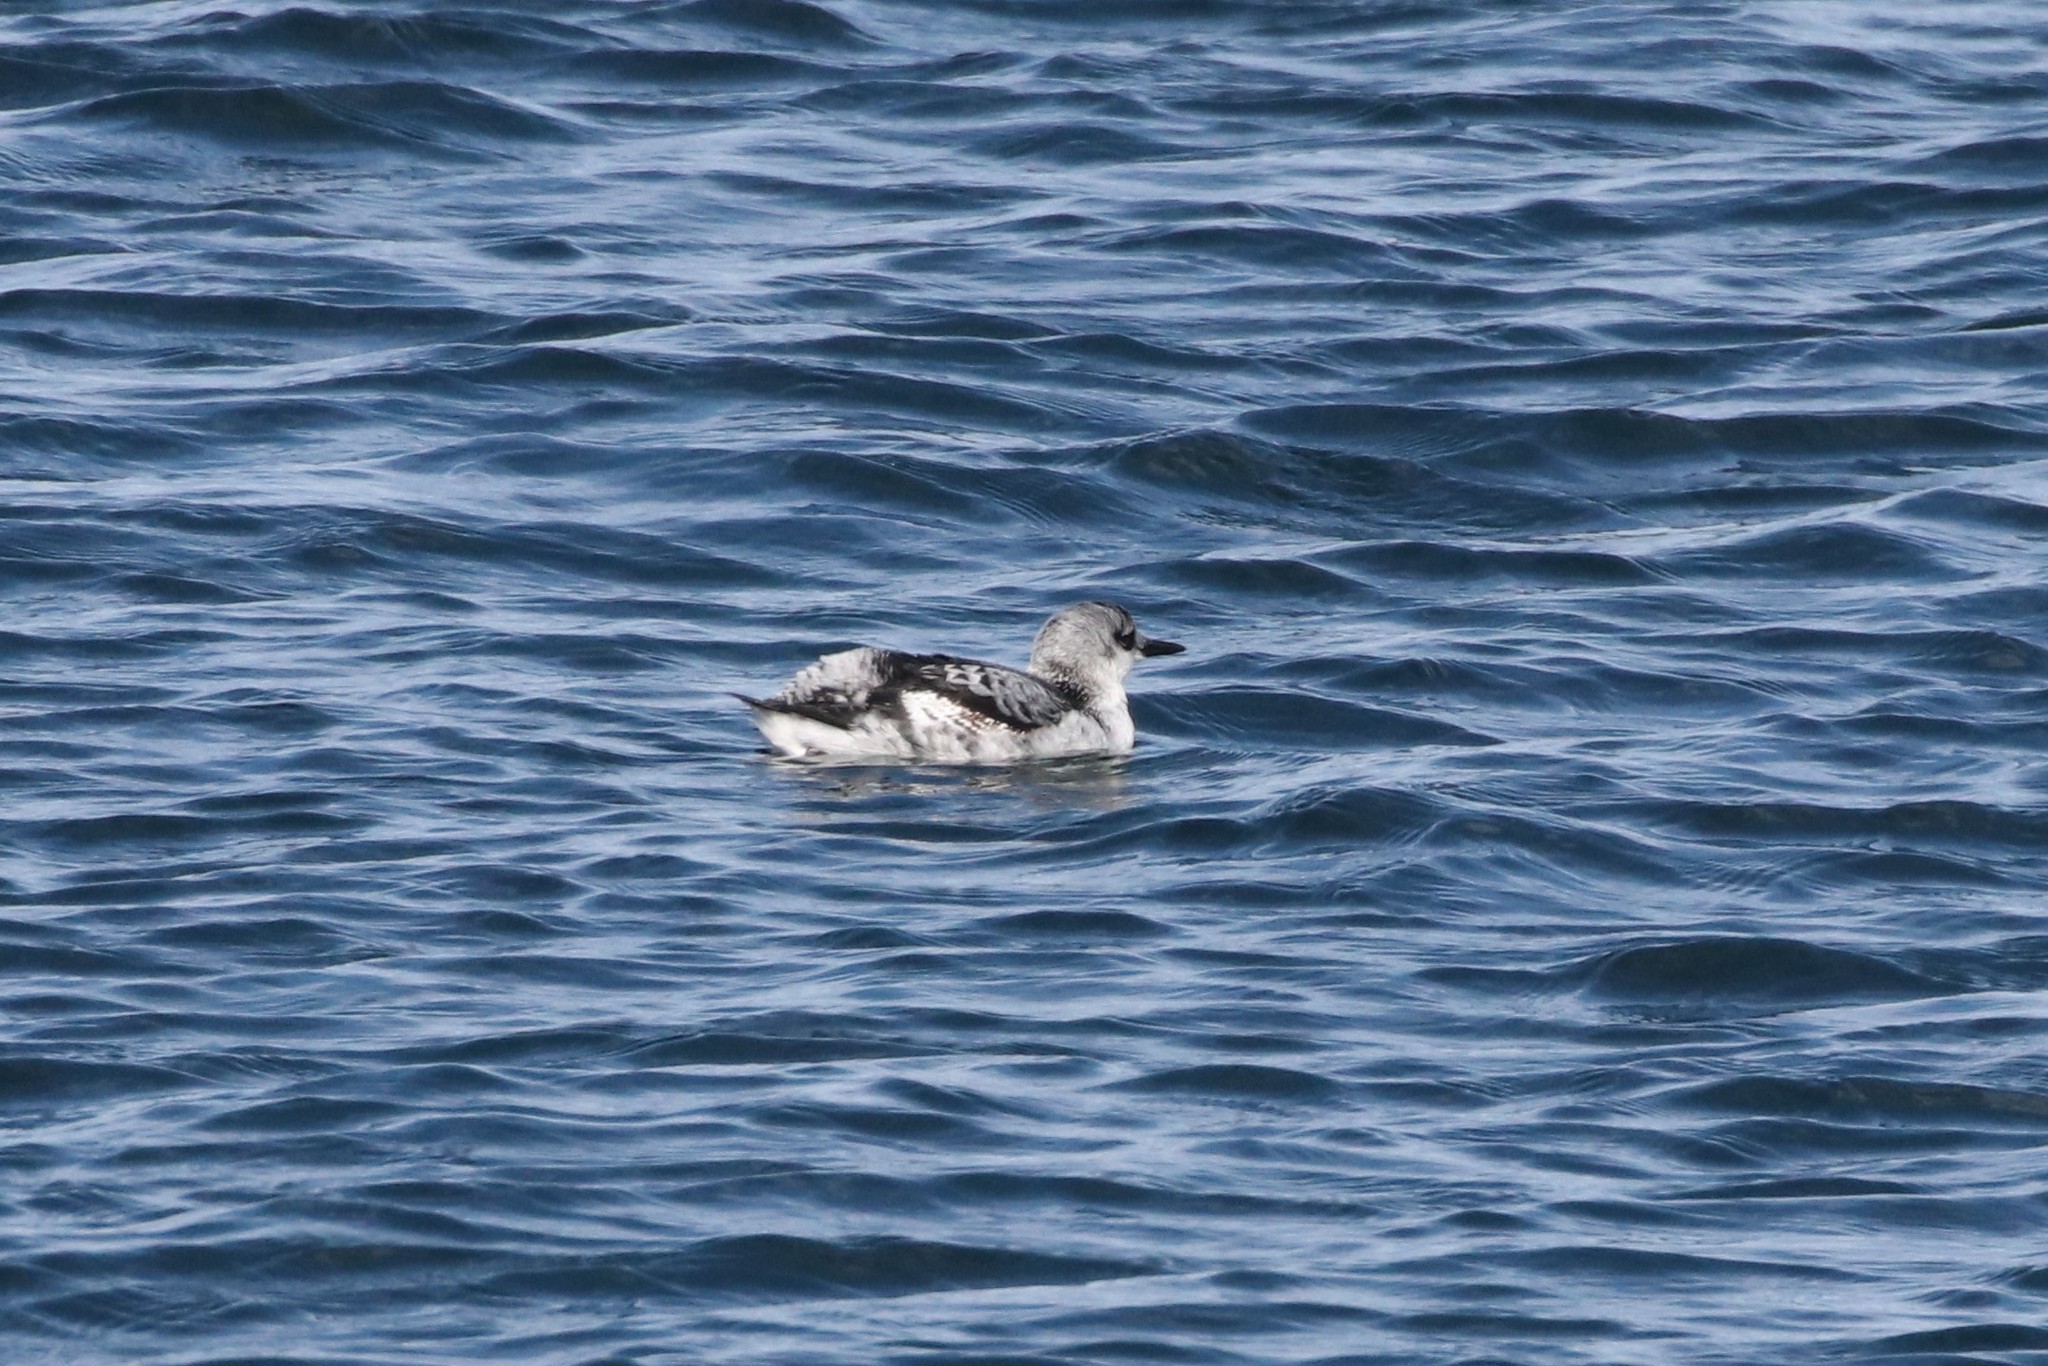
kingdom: Animalia
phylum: Chordata
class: Aves
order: Charadriiformes
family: Alcidae
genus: Cepphus
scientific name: Cepphus grylle
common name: Black guillemot
